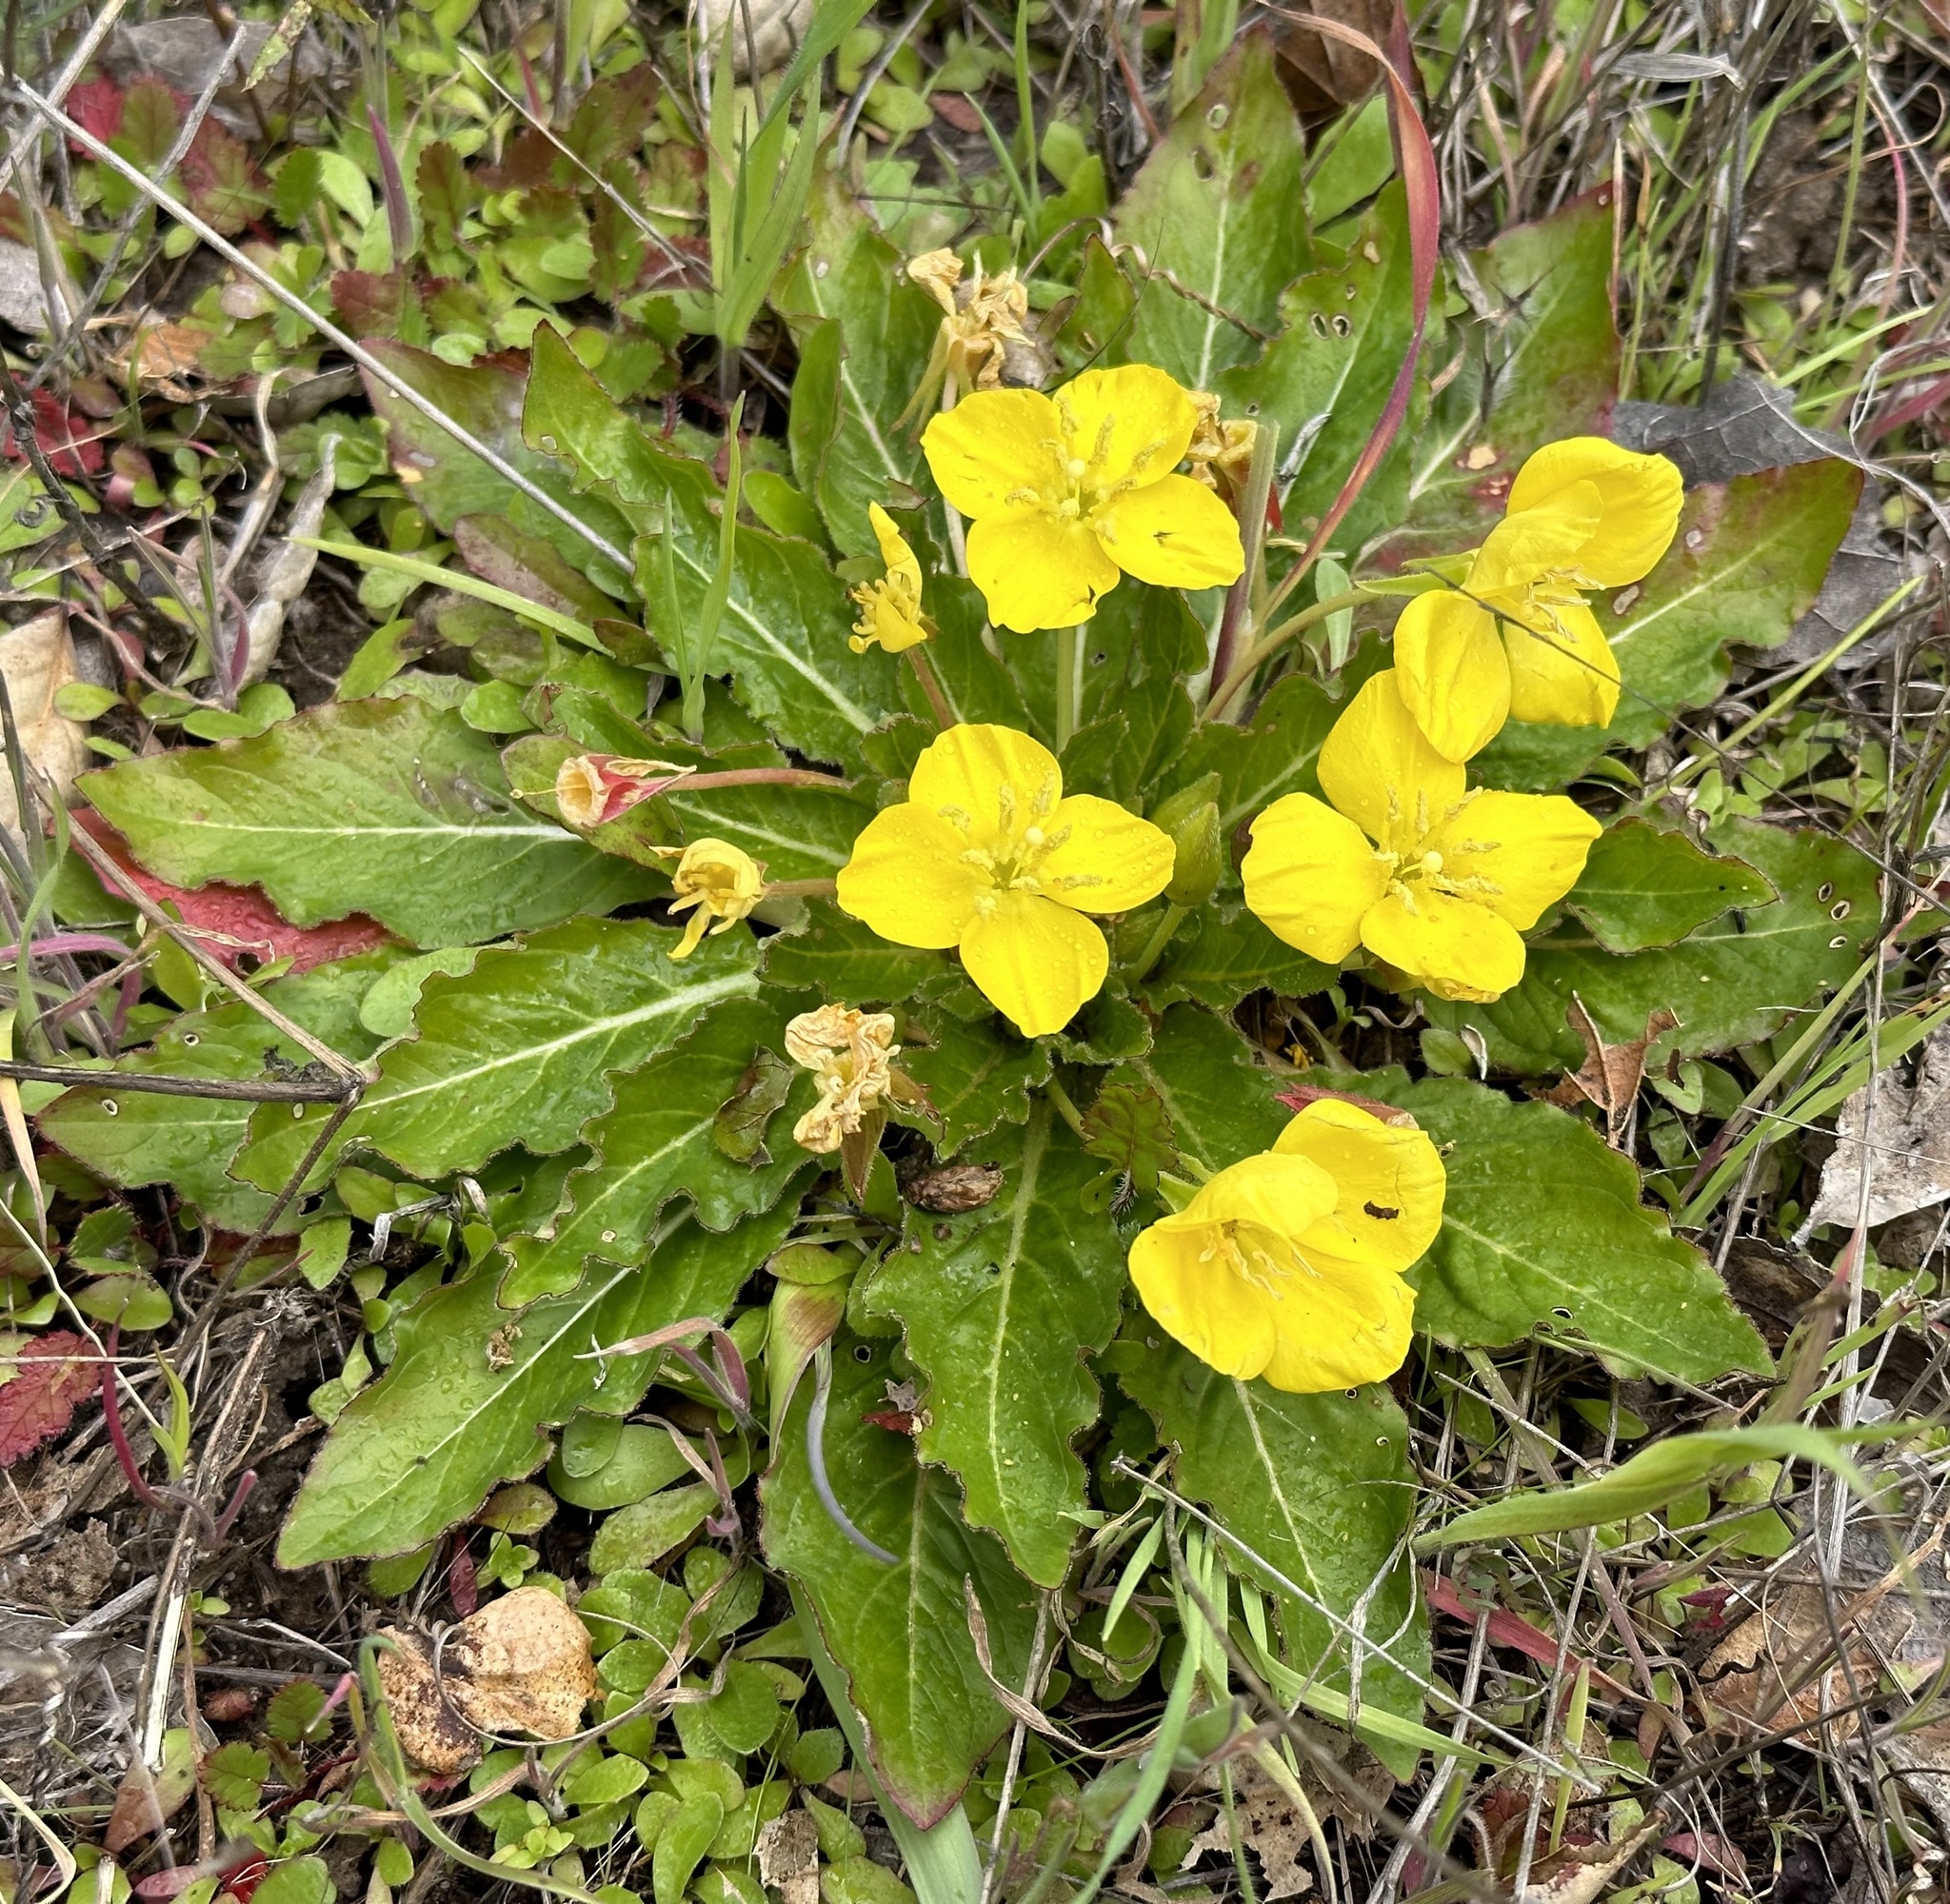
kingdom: Plantae
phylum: Tracheophyta
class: Magnoliopsida
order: Myrtales
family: Onagraceae
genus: Taraxia
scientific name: Taraxia ovata
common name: Goldeneggs
